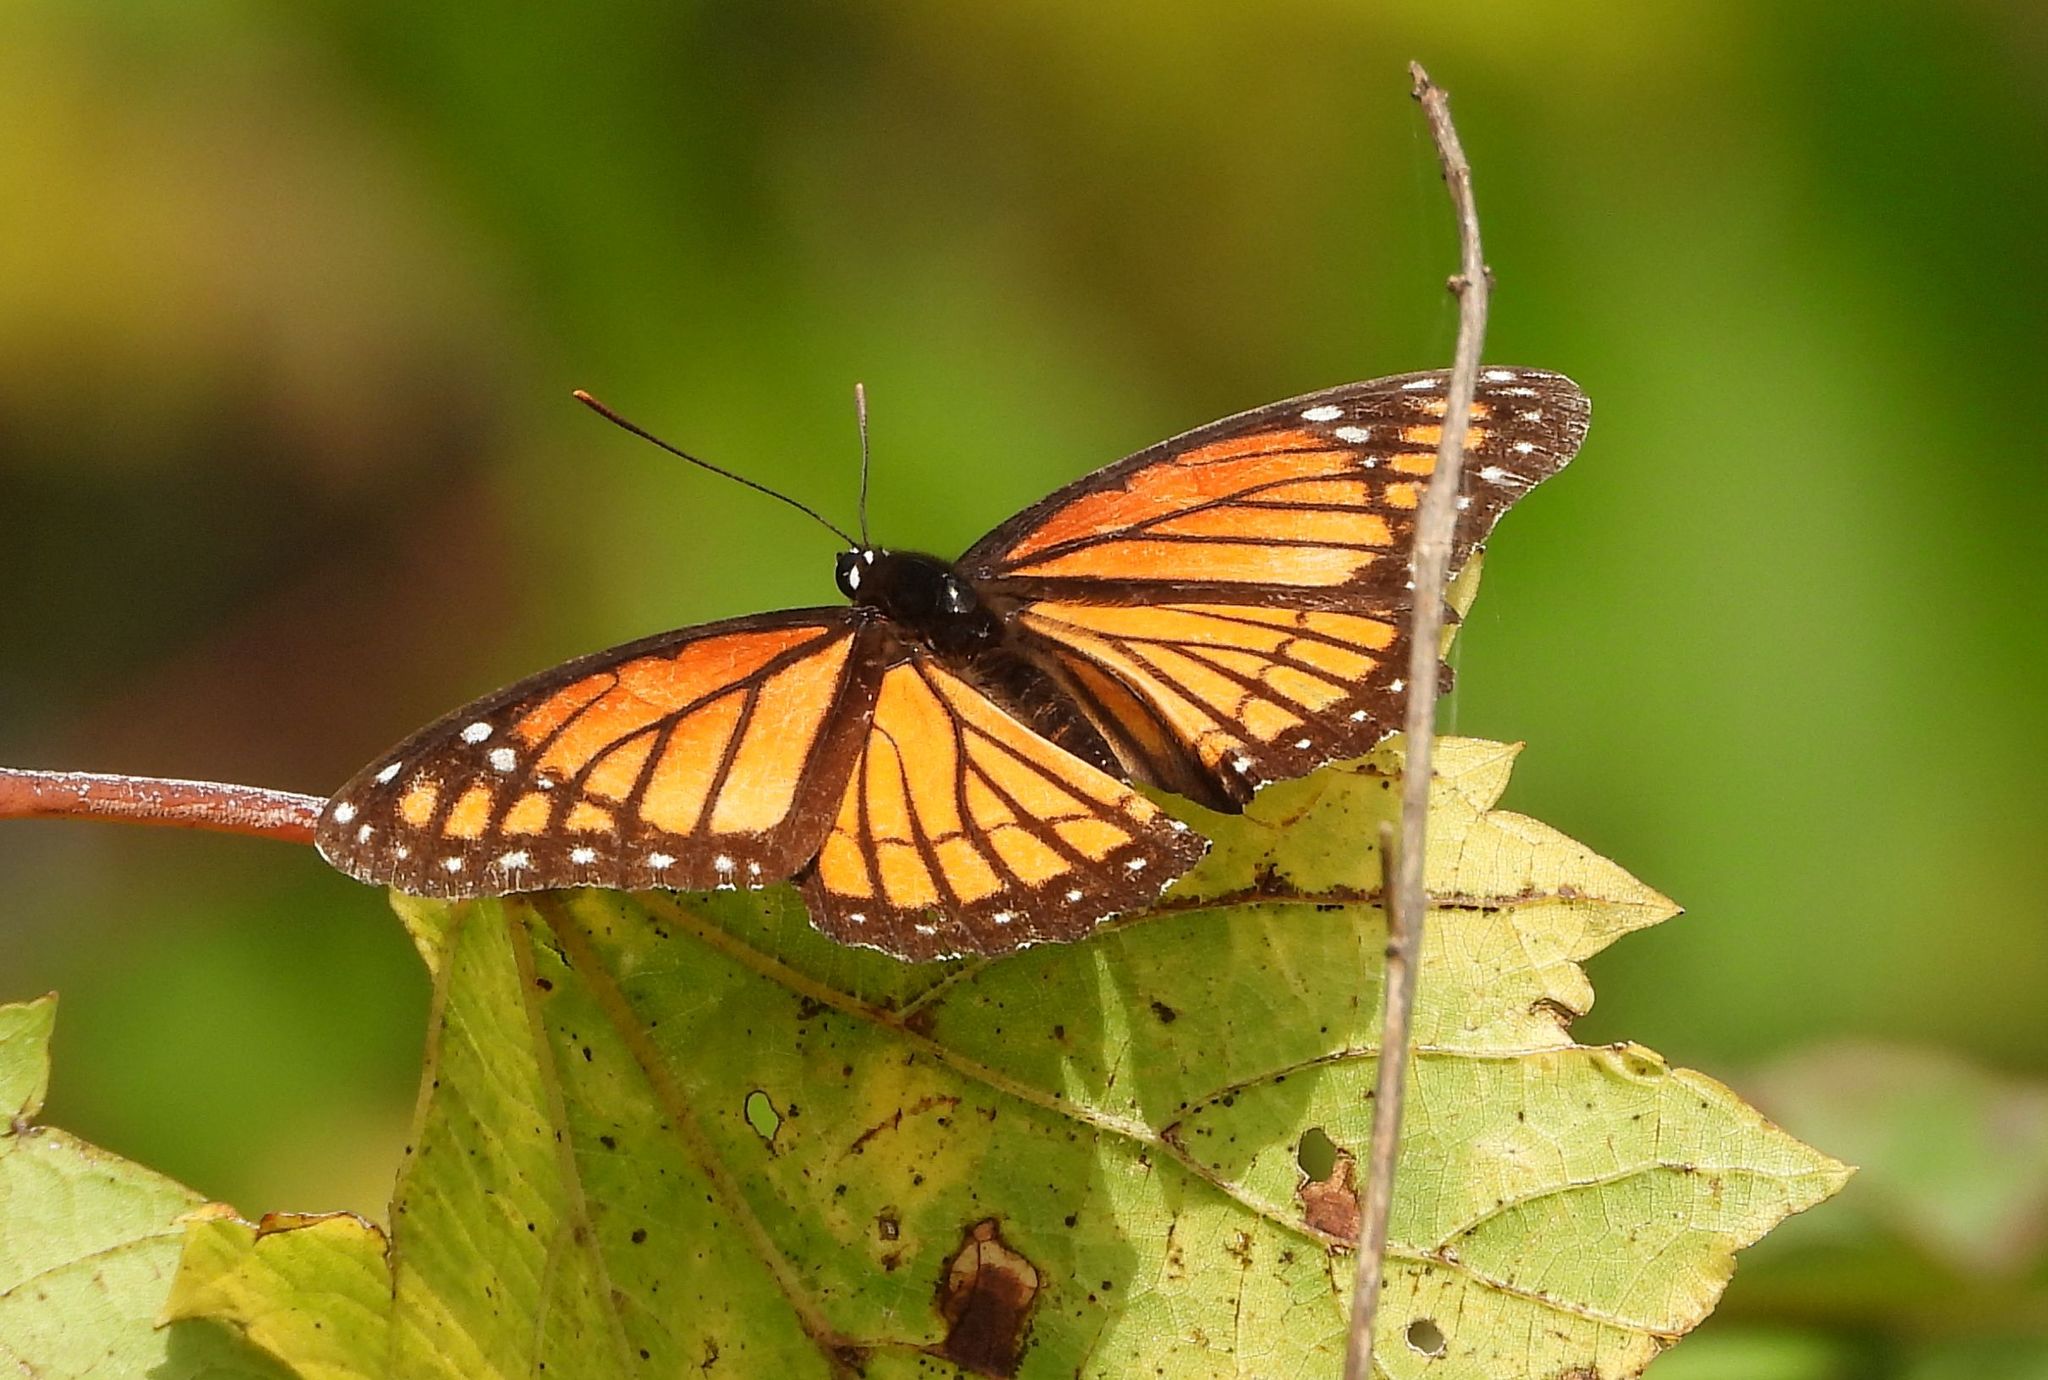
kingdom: Animalia
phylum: Arthropoda
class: Insecta
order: Lepidoptera
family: Nymphalidae
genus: Limenitis
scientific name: Limenitis archippus
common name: Viceroy
